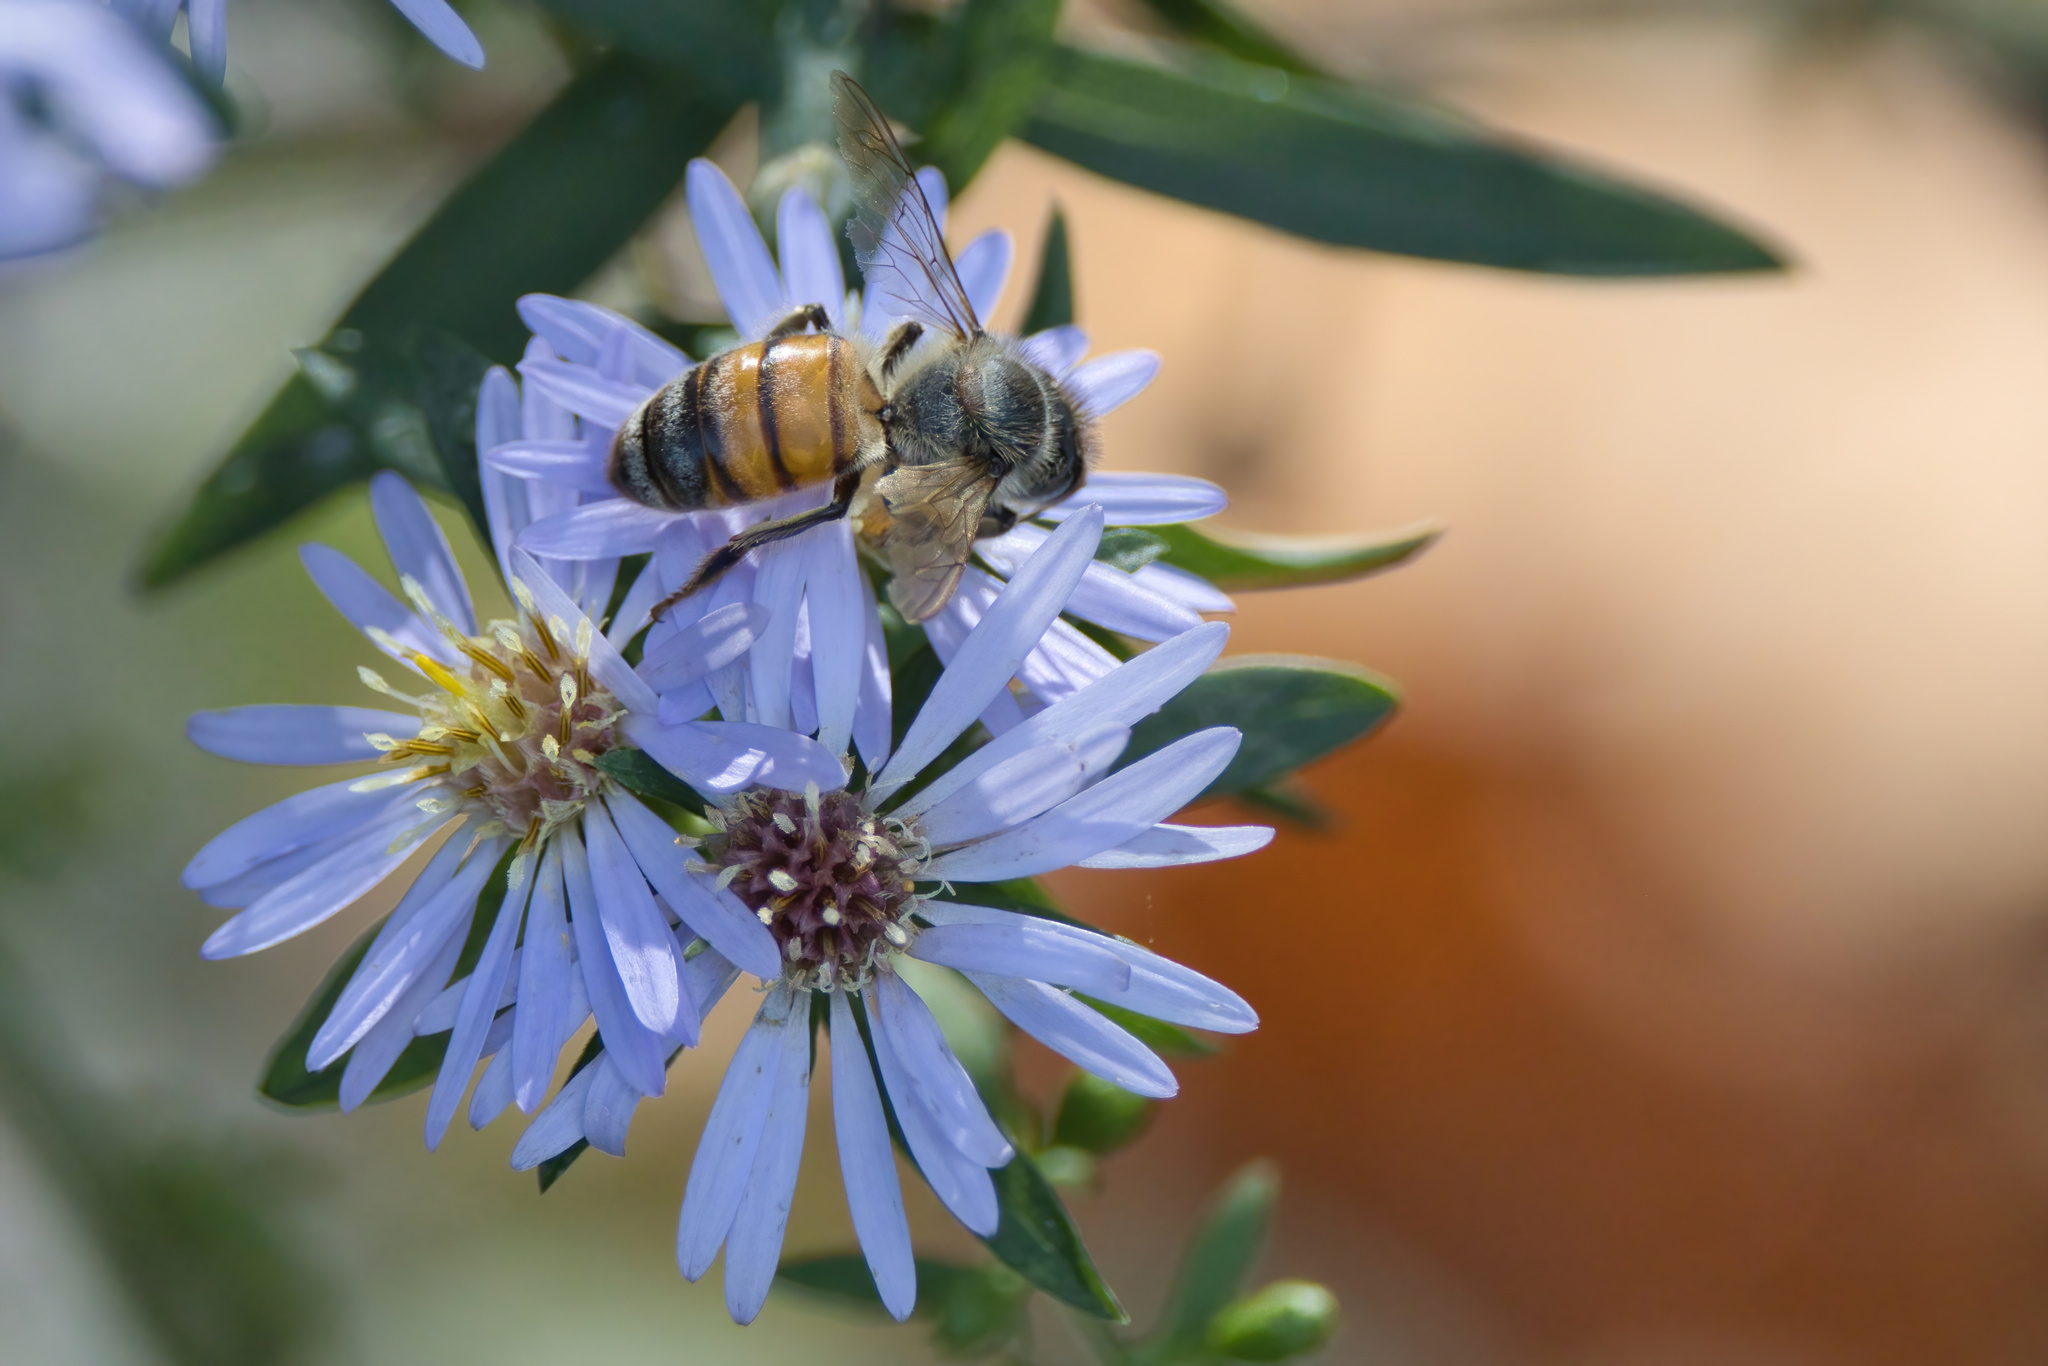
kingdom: Animalia
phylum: Arthropoda
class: Insecta
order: Hymenoptera
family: Apidae
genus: Apis
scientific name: Apis mellifera
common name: Honey bee
